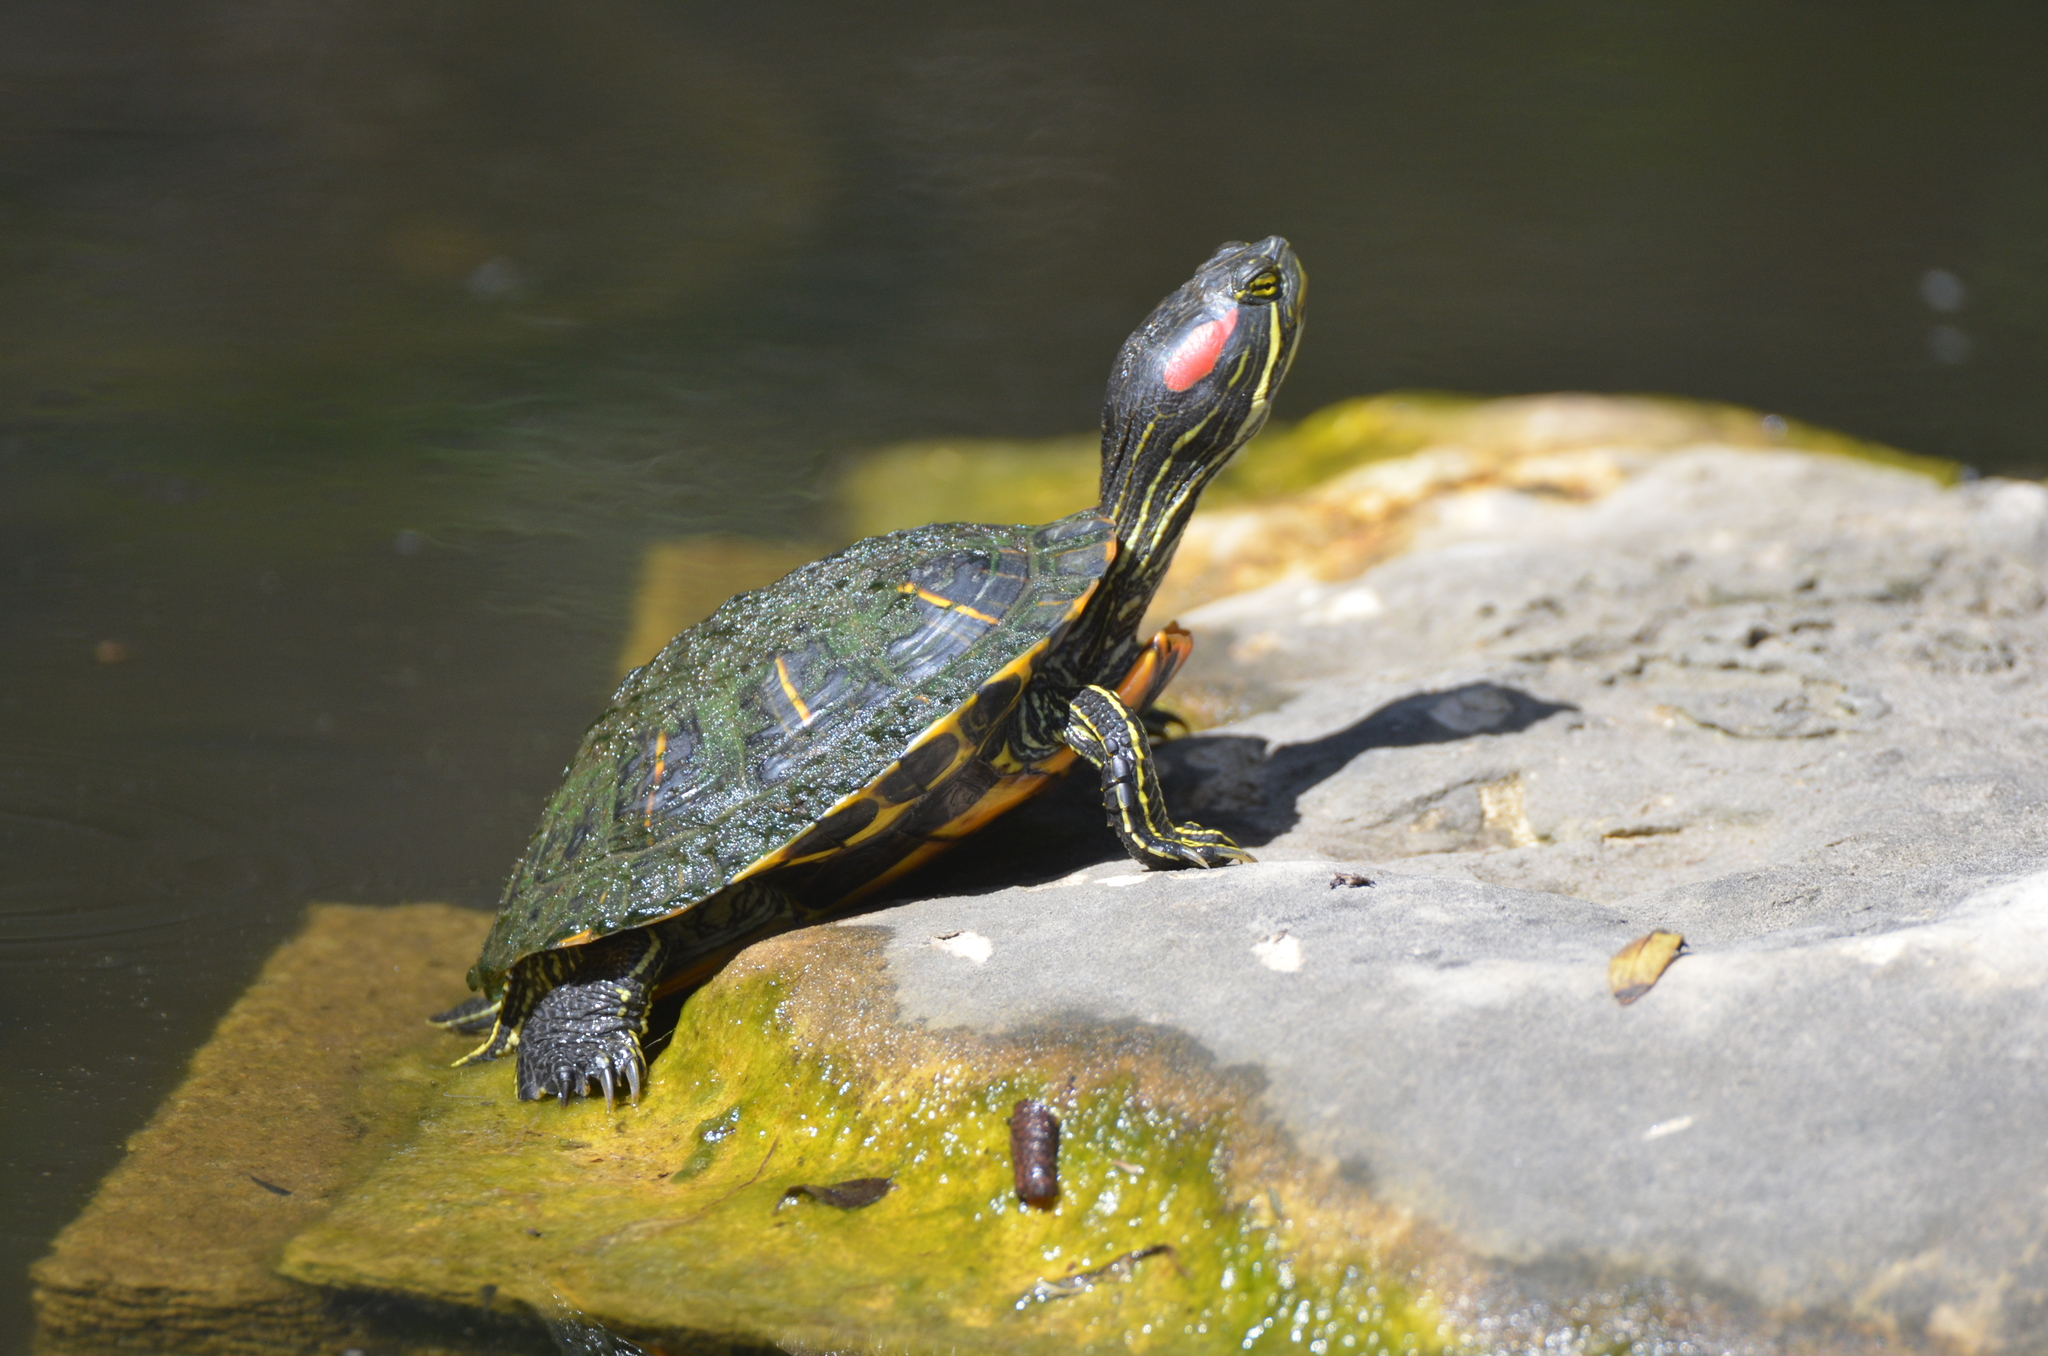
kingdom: Animalia
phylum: Chordata
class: Testudines
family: Emydidae
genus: Trachemys
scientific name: Trachemys scripta
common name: Slider
